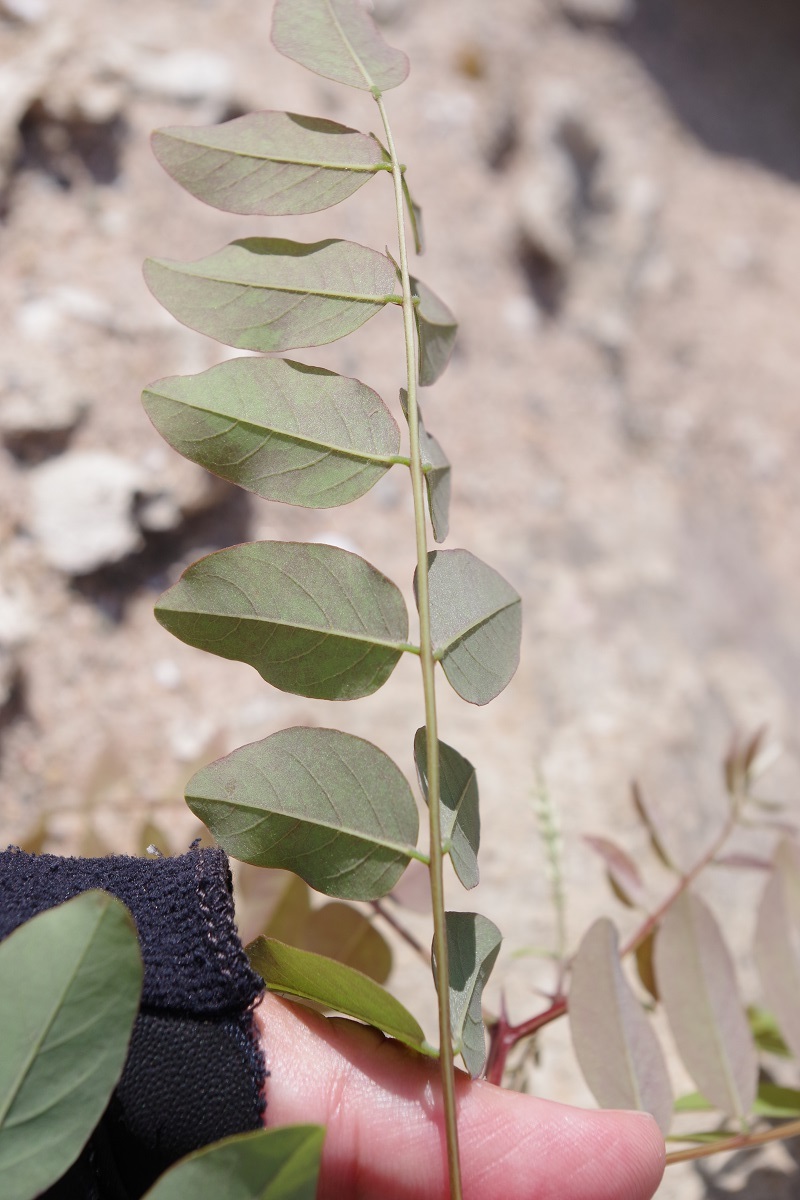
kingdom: Plantae
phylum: Tracheophyta
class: Magnoliopsida
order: Fabales
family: Fabaceae
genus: Robinia
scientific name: Robinia pseudoacacia
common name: Black locust
